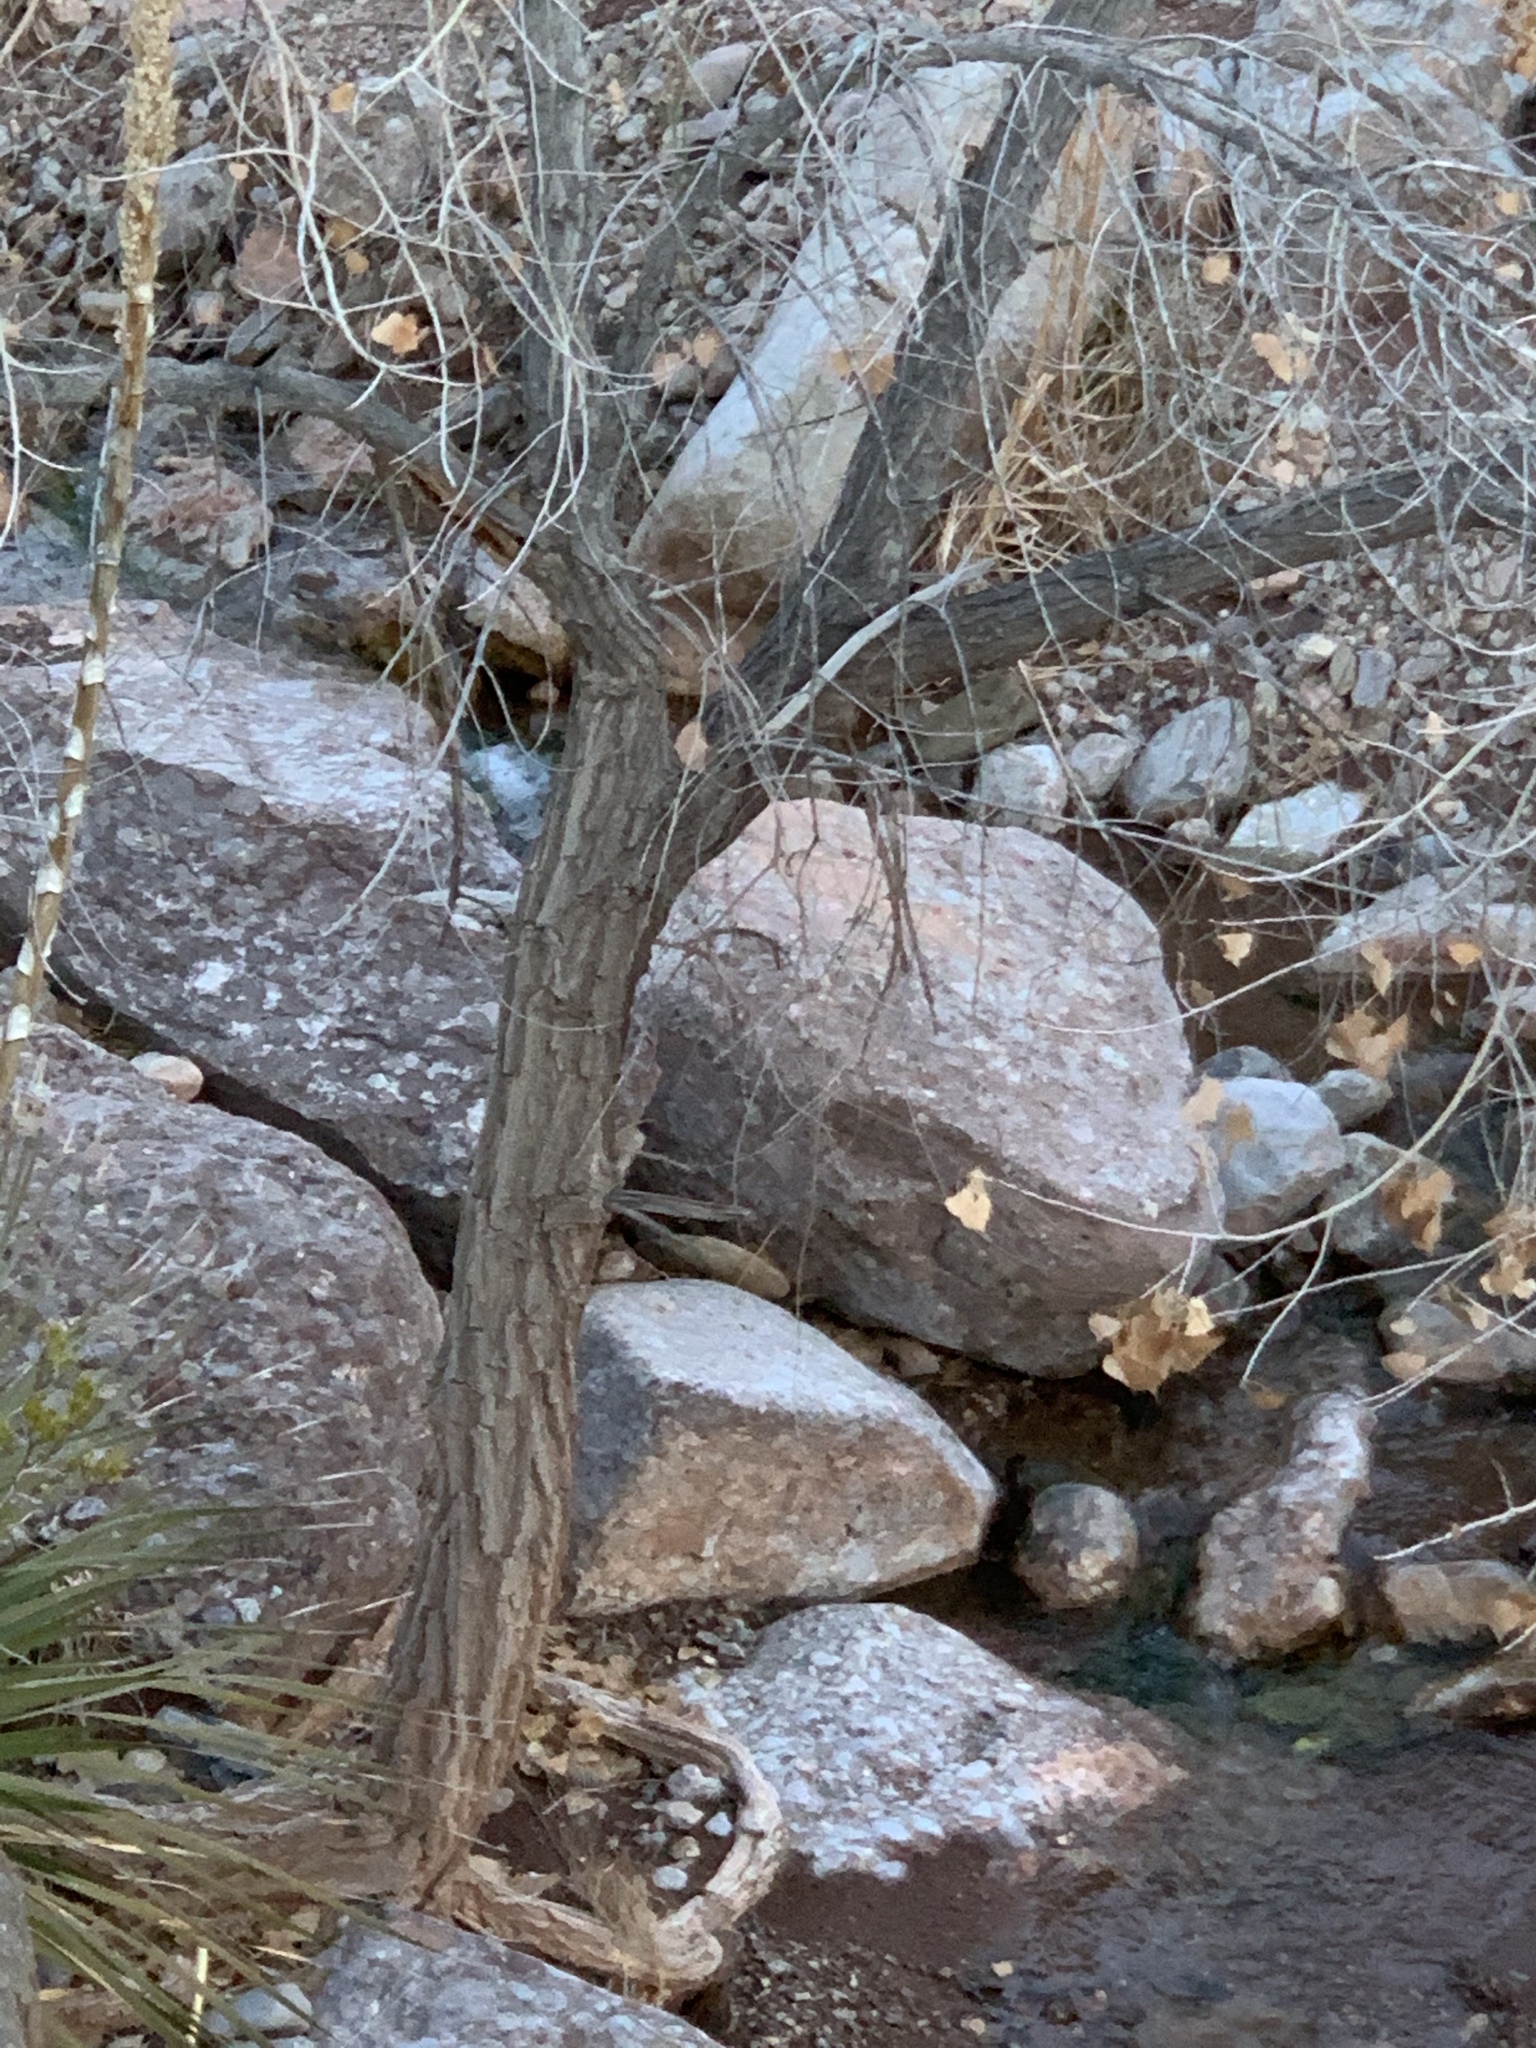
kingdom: Plantae
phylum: Tracheophyta
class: Magnoliopsida
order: Malpighiales
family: Salicaceae
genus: Populus
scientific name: Populus fremontii
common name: Fremont's cottonwood
